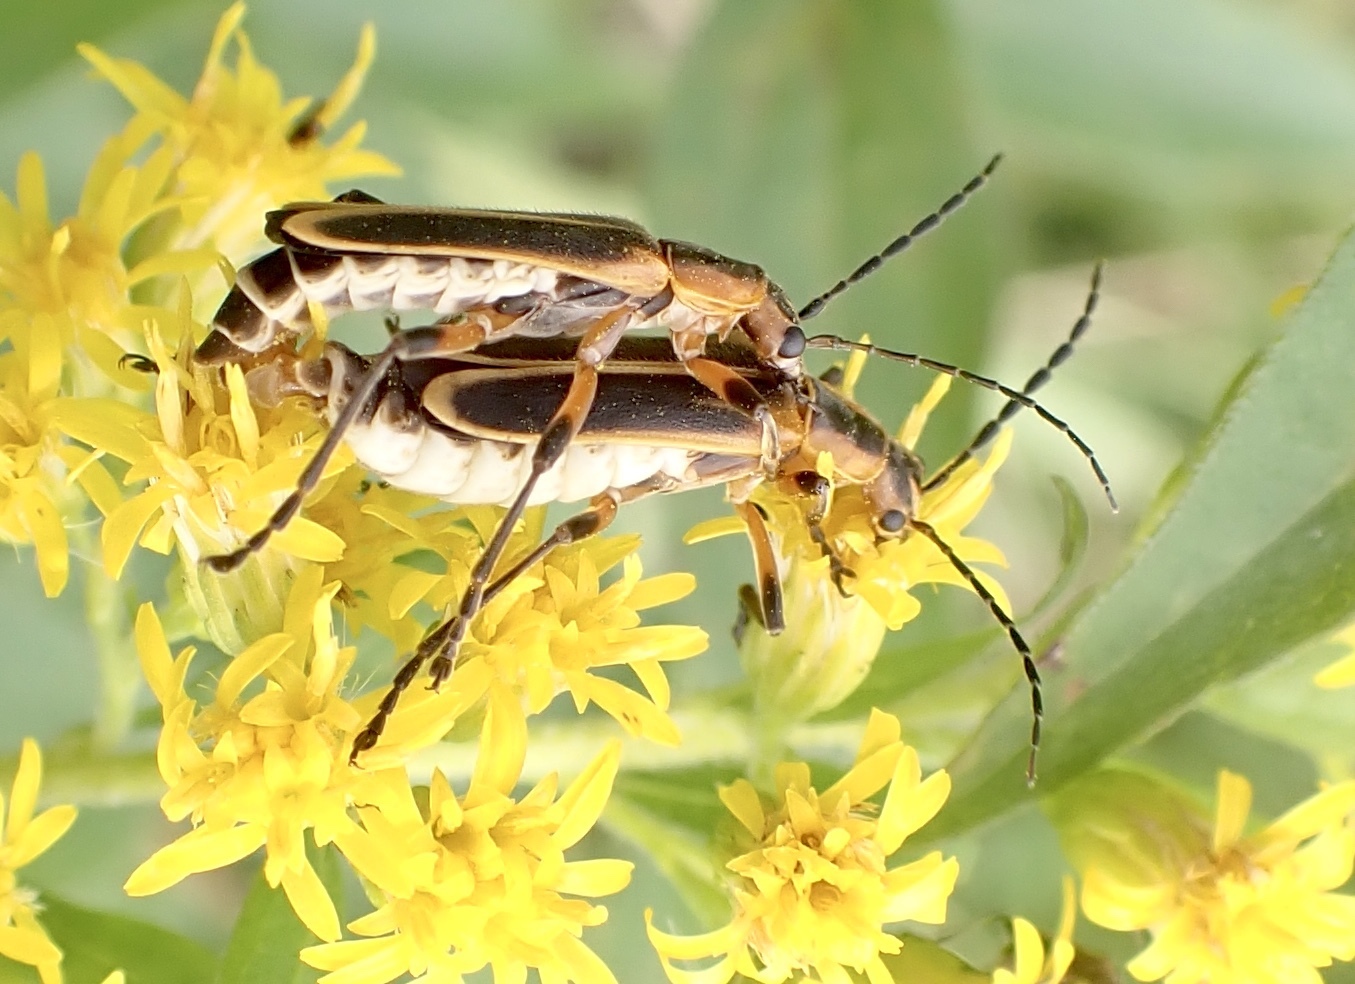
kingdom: Animalia
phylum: Arthropoda
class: Insecta
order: Coleoptera
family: Cantharidae
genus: Chauliognathus
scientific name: Chauliognathus marginatus
